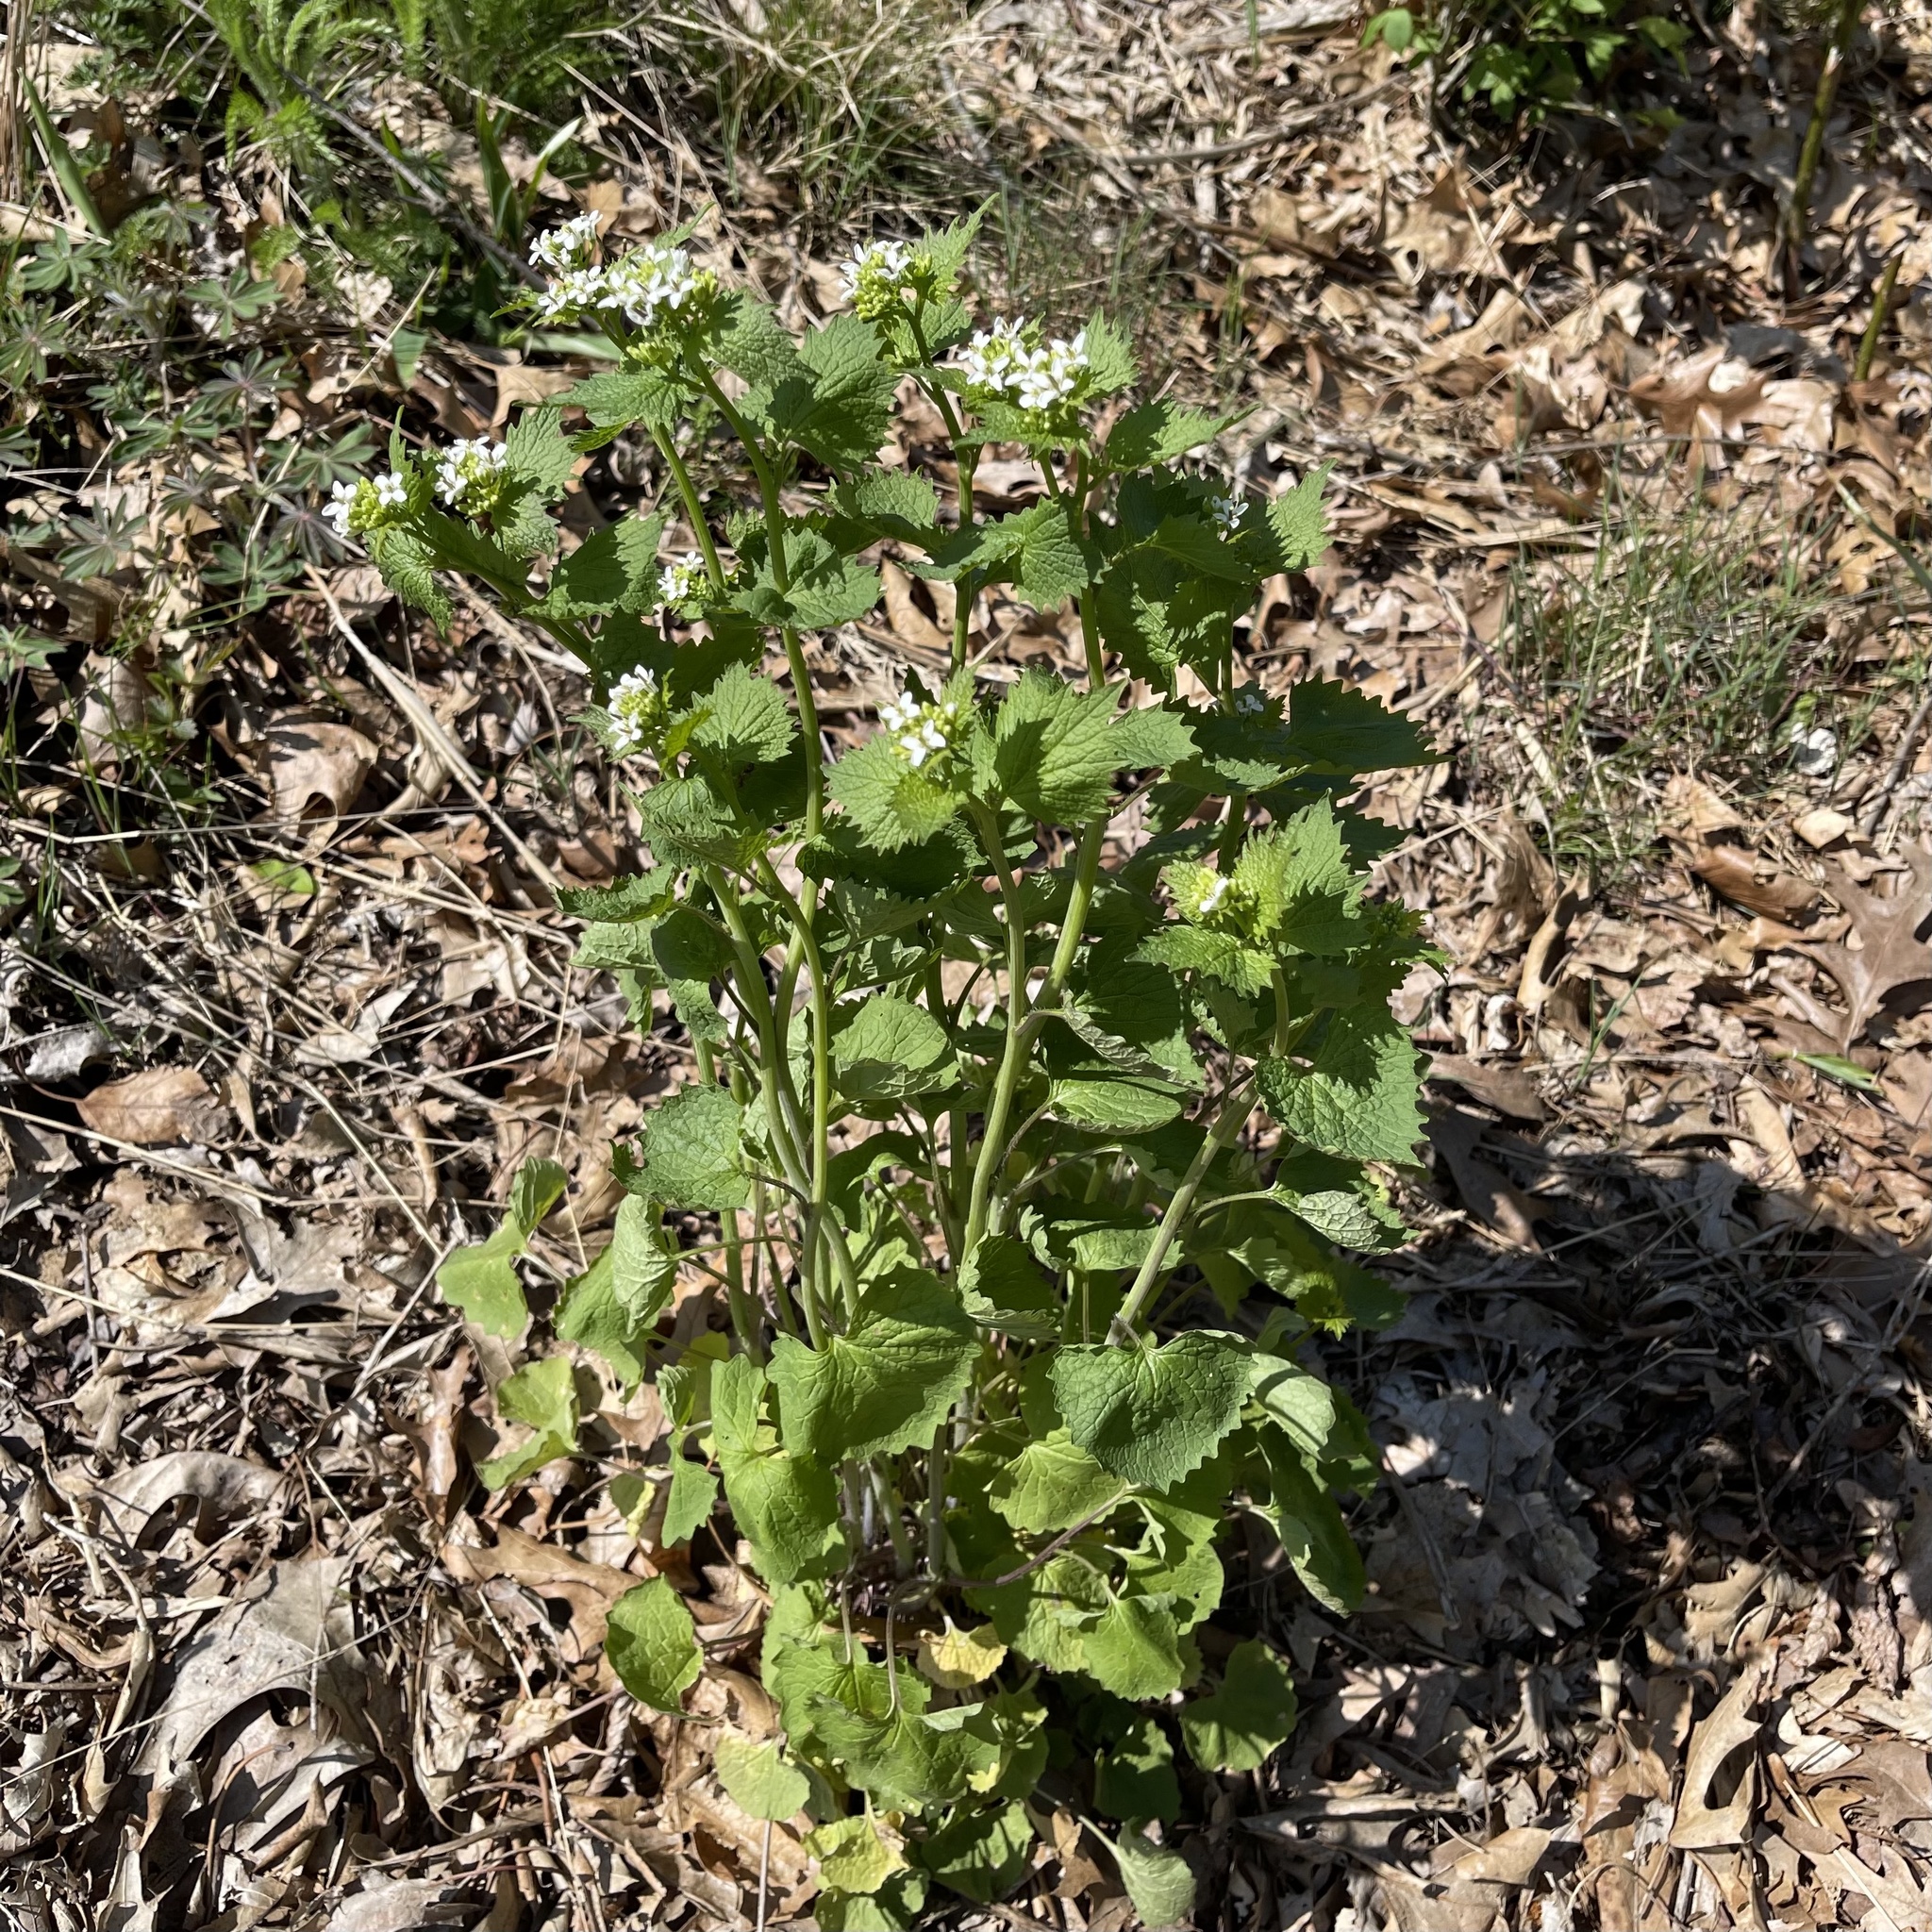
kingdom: Plantae
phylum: Tracheophyta
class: Magnoliopsida
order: Brassicales
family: Brassicaceae
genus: Alliaria
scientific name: Alliaria petiolata
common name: Garlic mustard
